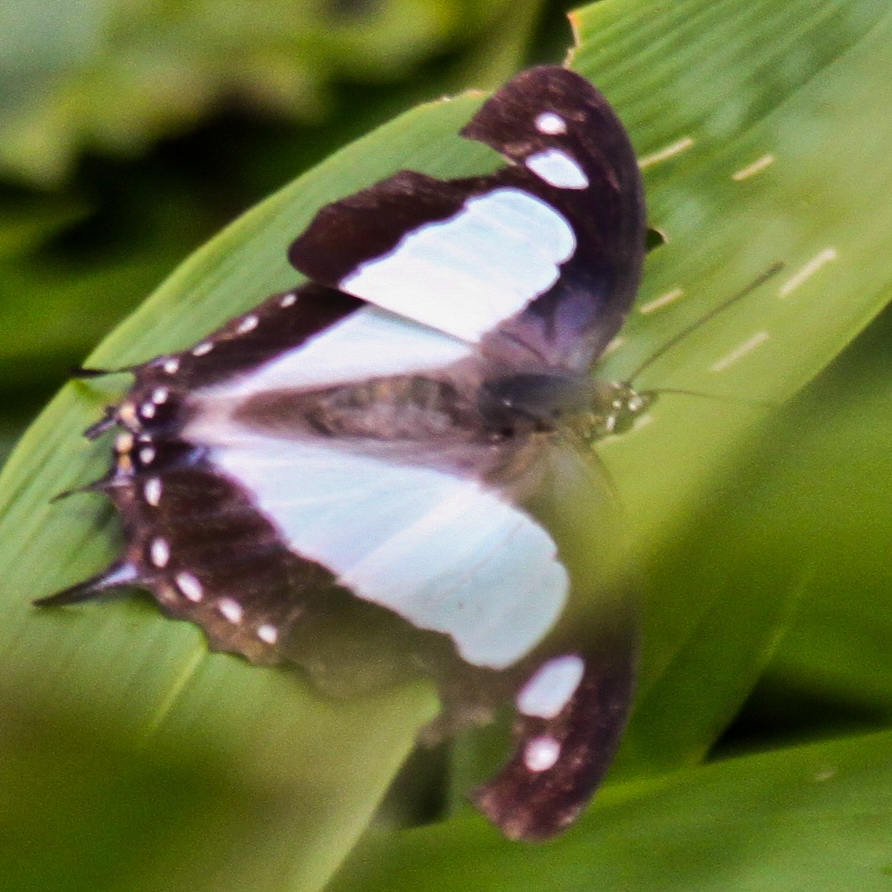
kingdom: Animalia
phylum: Arthropoda
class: Insecta
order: Lepidoptera
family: Nymphalidae
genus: Polyura
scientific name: Polyura arja
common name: Pallid nawab
